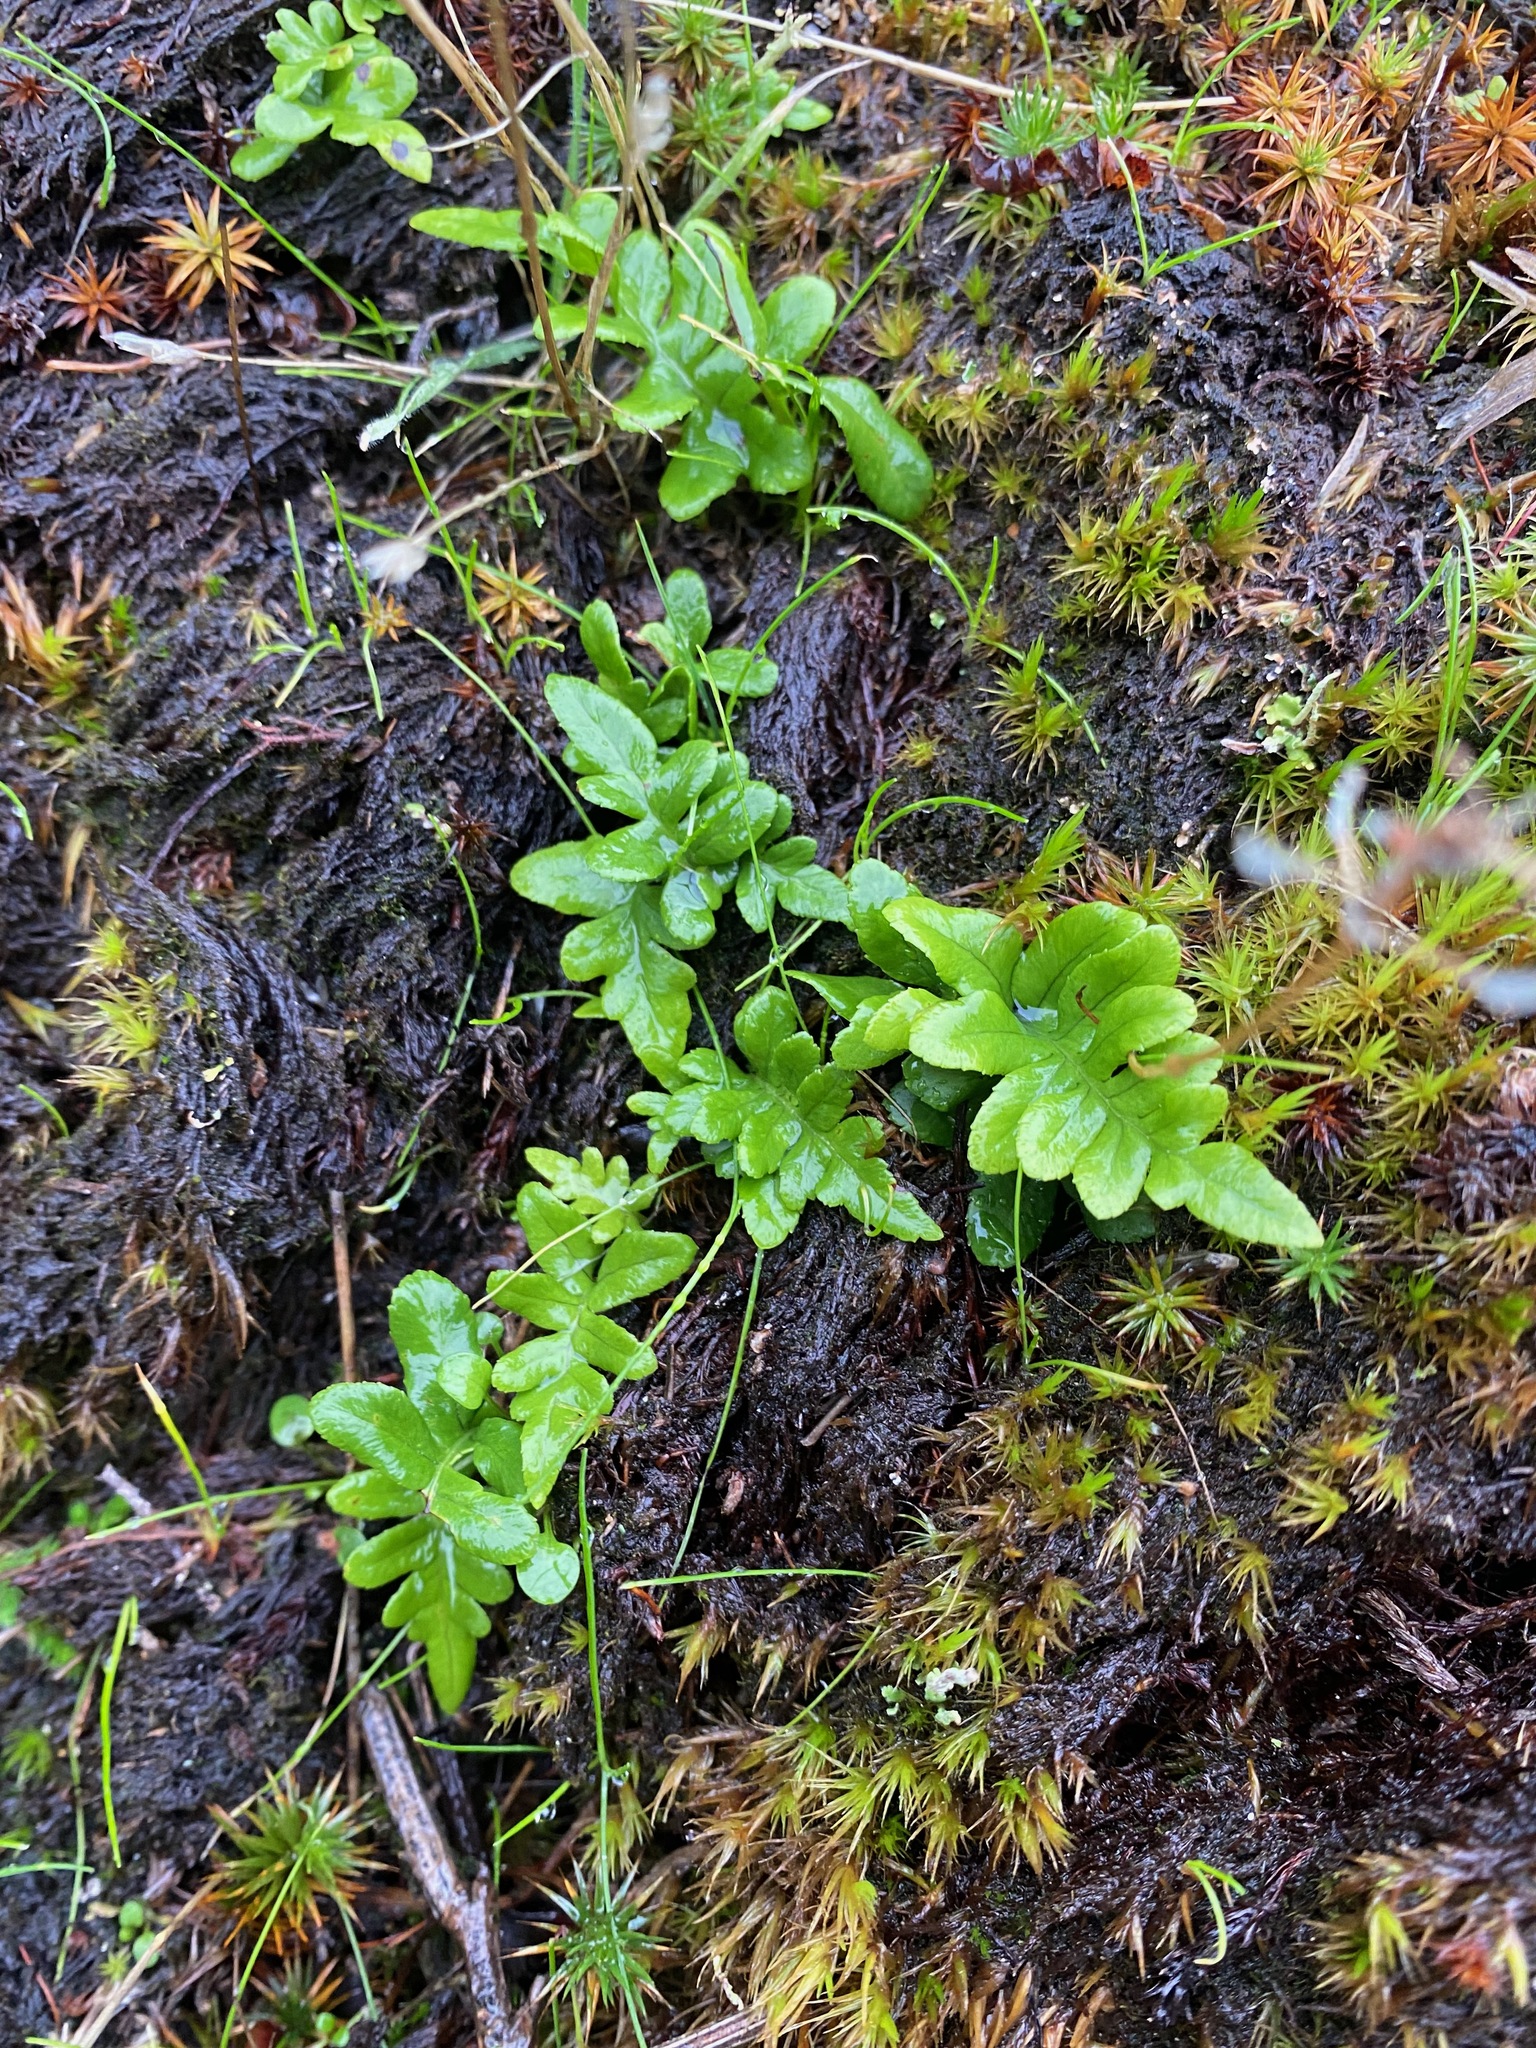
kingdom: Plantae
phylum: Tracheophyta
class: Polypodiopsida
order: Polypodiales
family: Polypodiaceae
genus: Polypodium
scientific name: Polypodium glycyrrhiza
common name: Licorice fern
